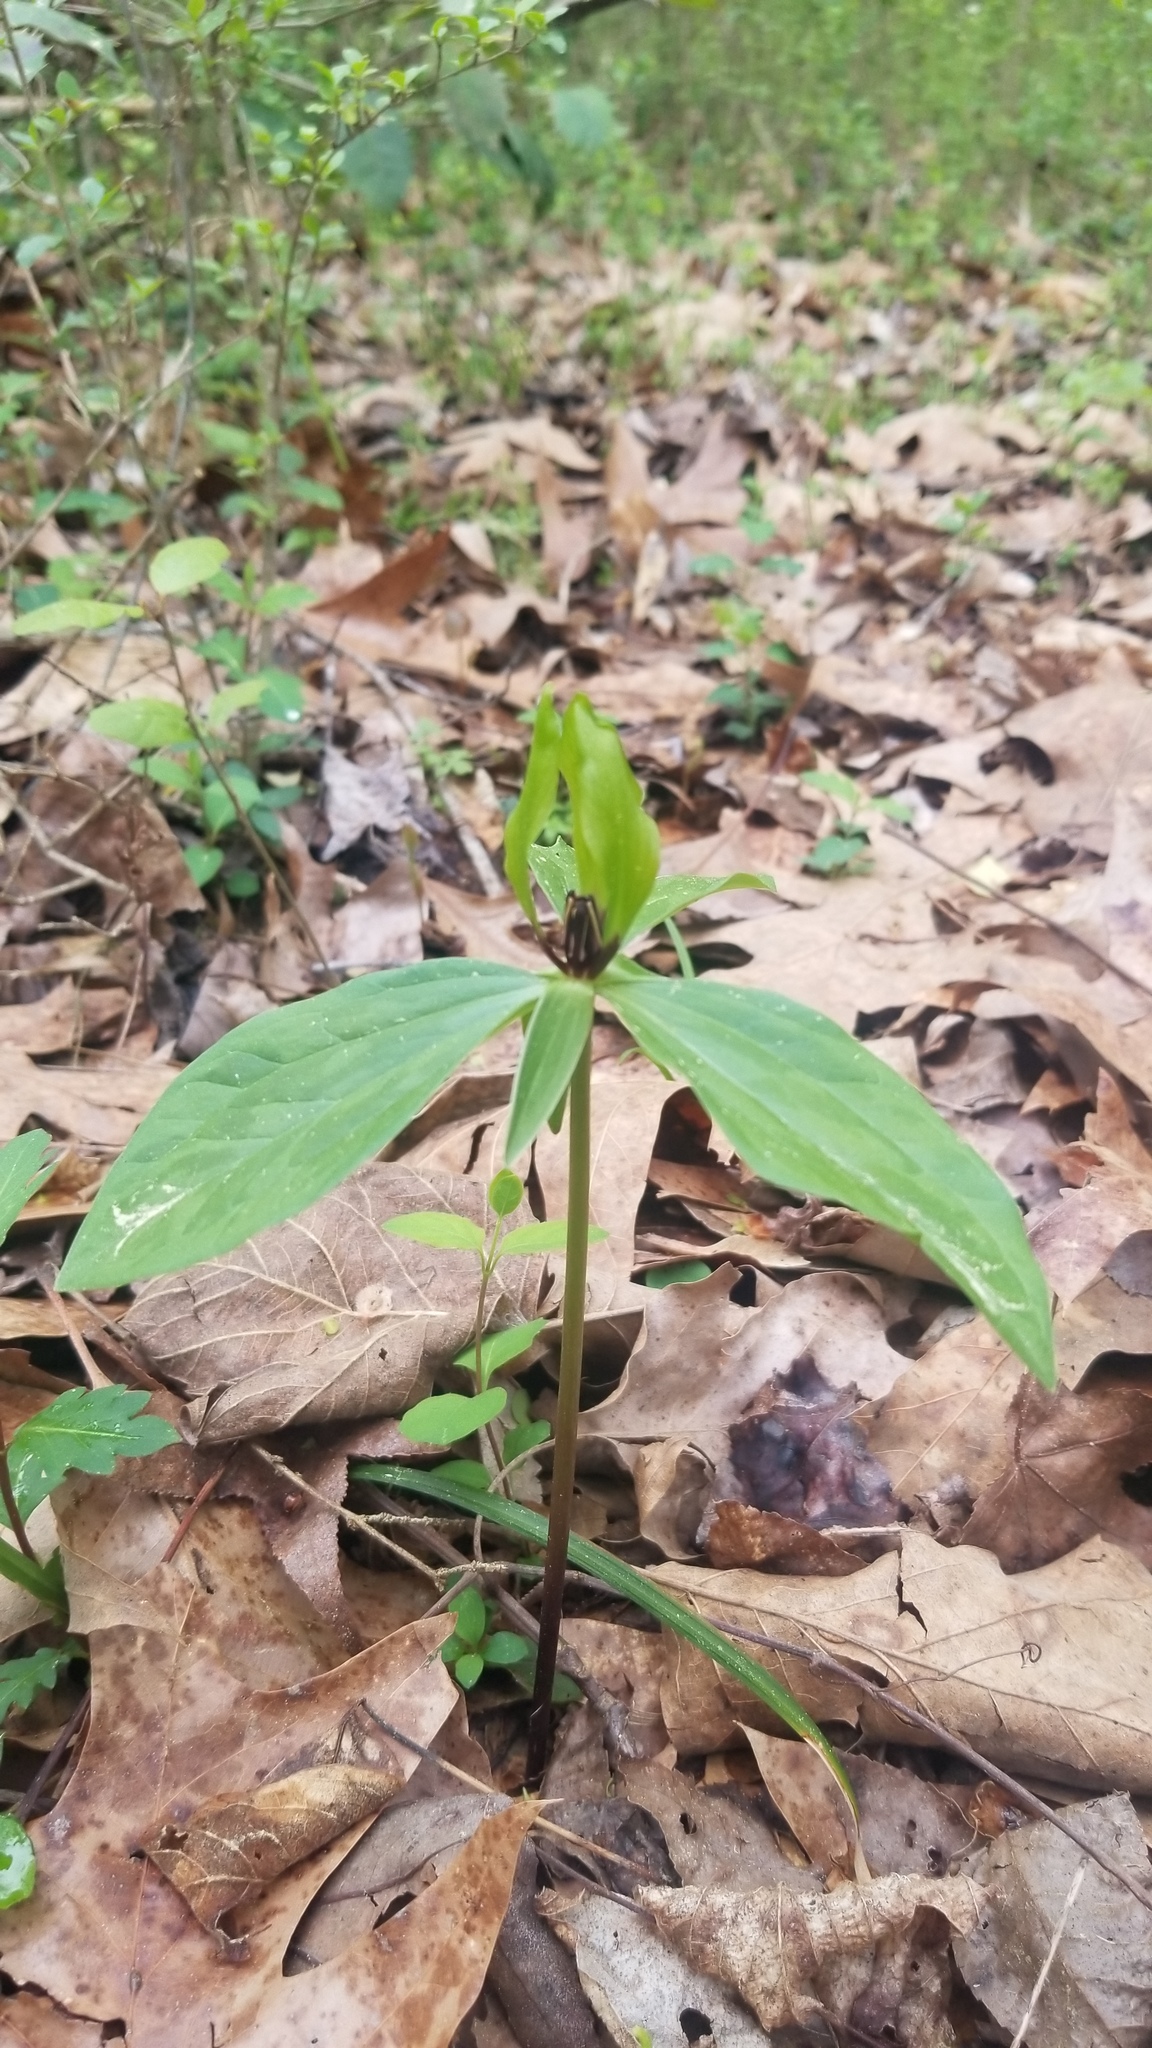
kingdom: Plantae
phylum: Tracheophyta
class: Liliopsida
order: Liliales
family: Melanthiaceae
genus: Trillium
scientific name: Trillium oostingii
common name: Wateree trillium
